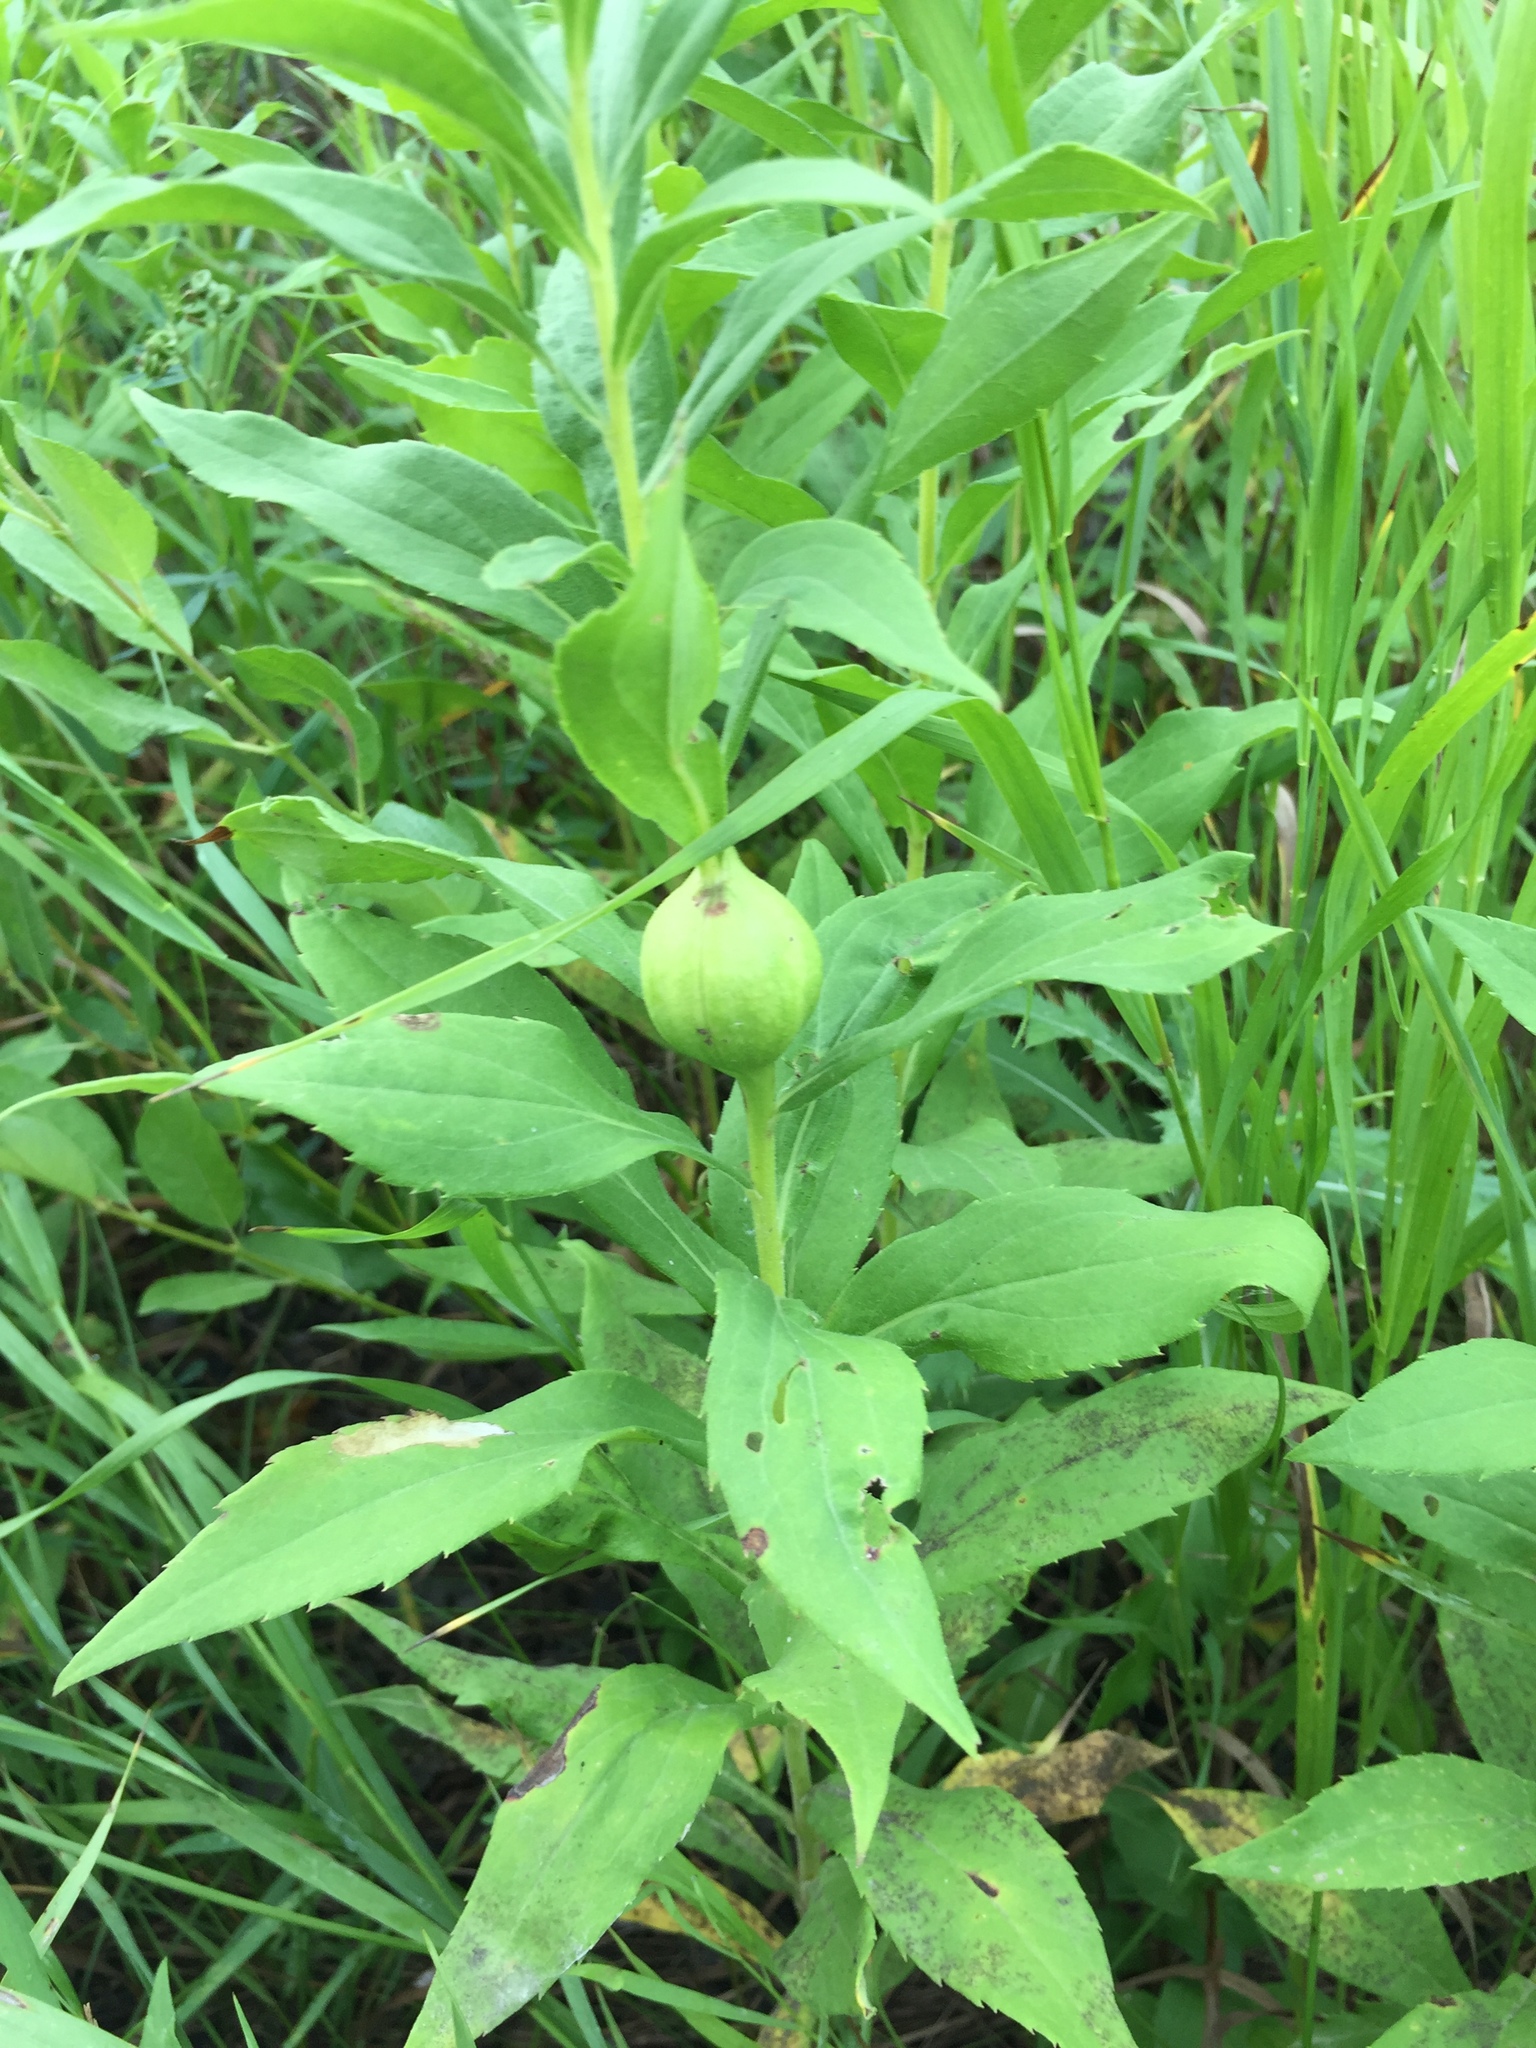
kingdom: Animalia
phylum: Arthropoda
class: Insecta
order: Diptera
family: Tephritidae
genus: Eurosta
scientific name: Eurosta solidaginis
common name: Goldenrod gall fly
